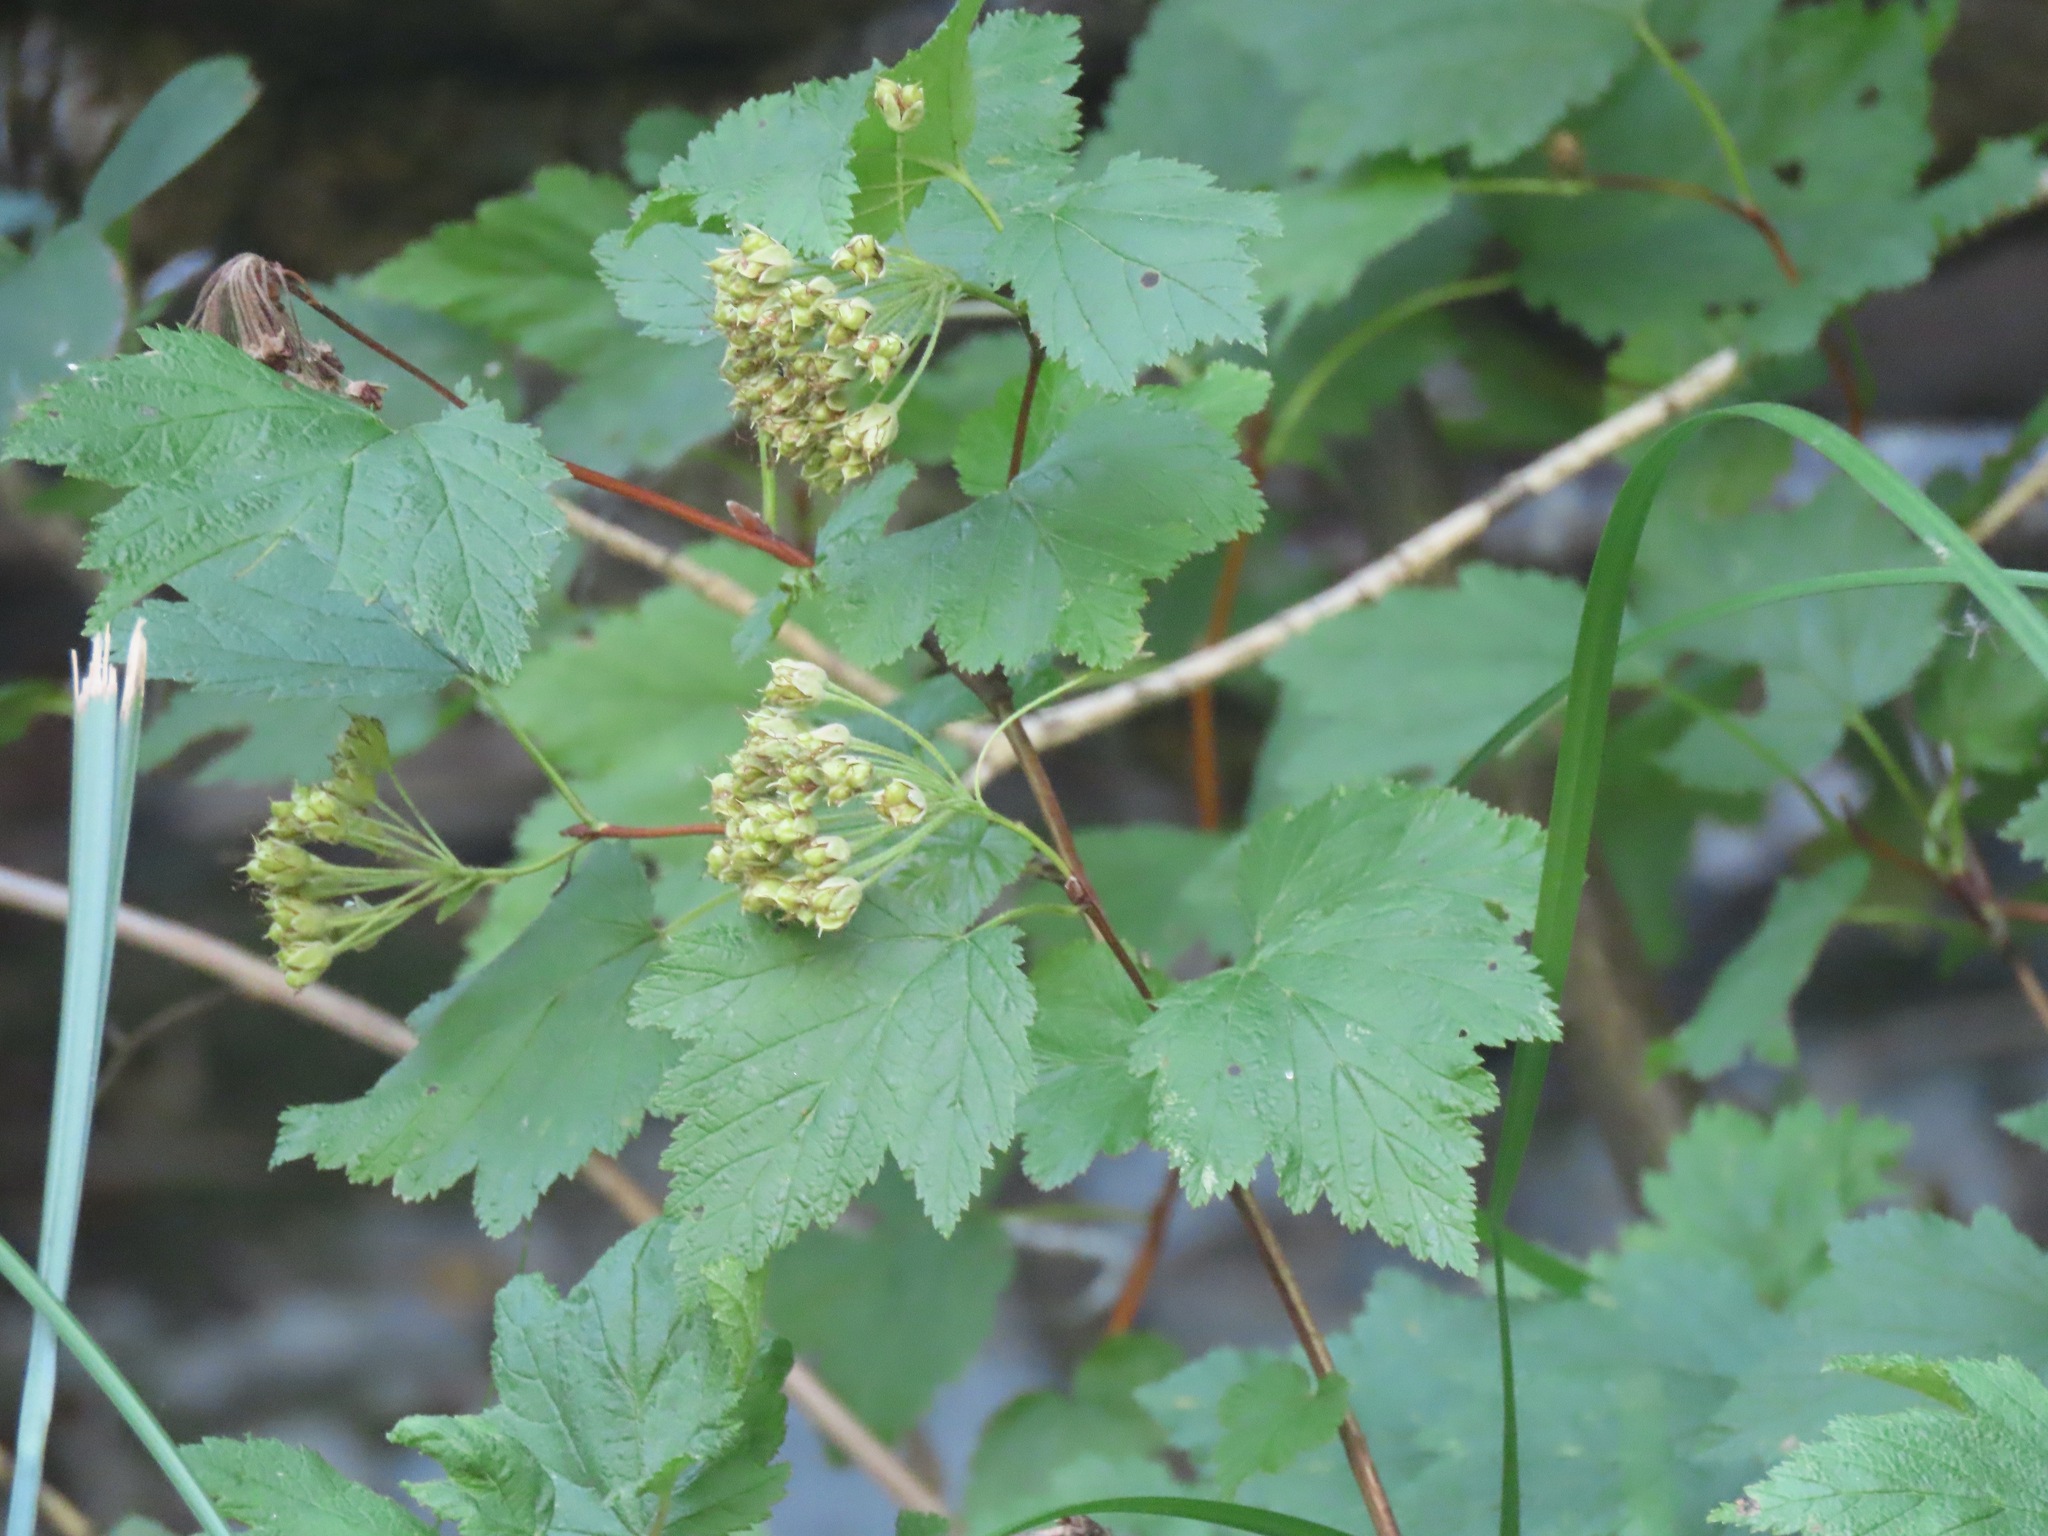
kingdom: Plantae
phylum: Tracheophyta
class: Magnoliopsida
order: Rosales
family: Rosaceae
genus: Physocarpus
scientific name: Physocarpus capitatus
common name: Pacific ninebark
